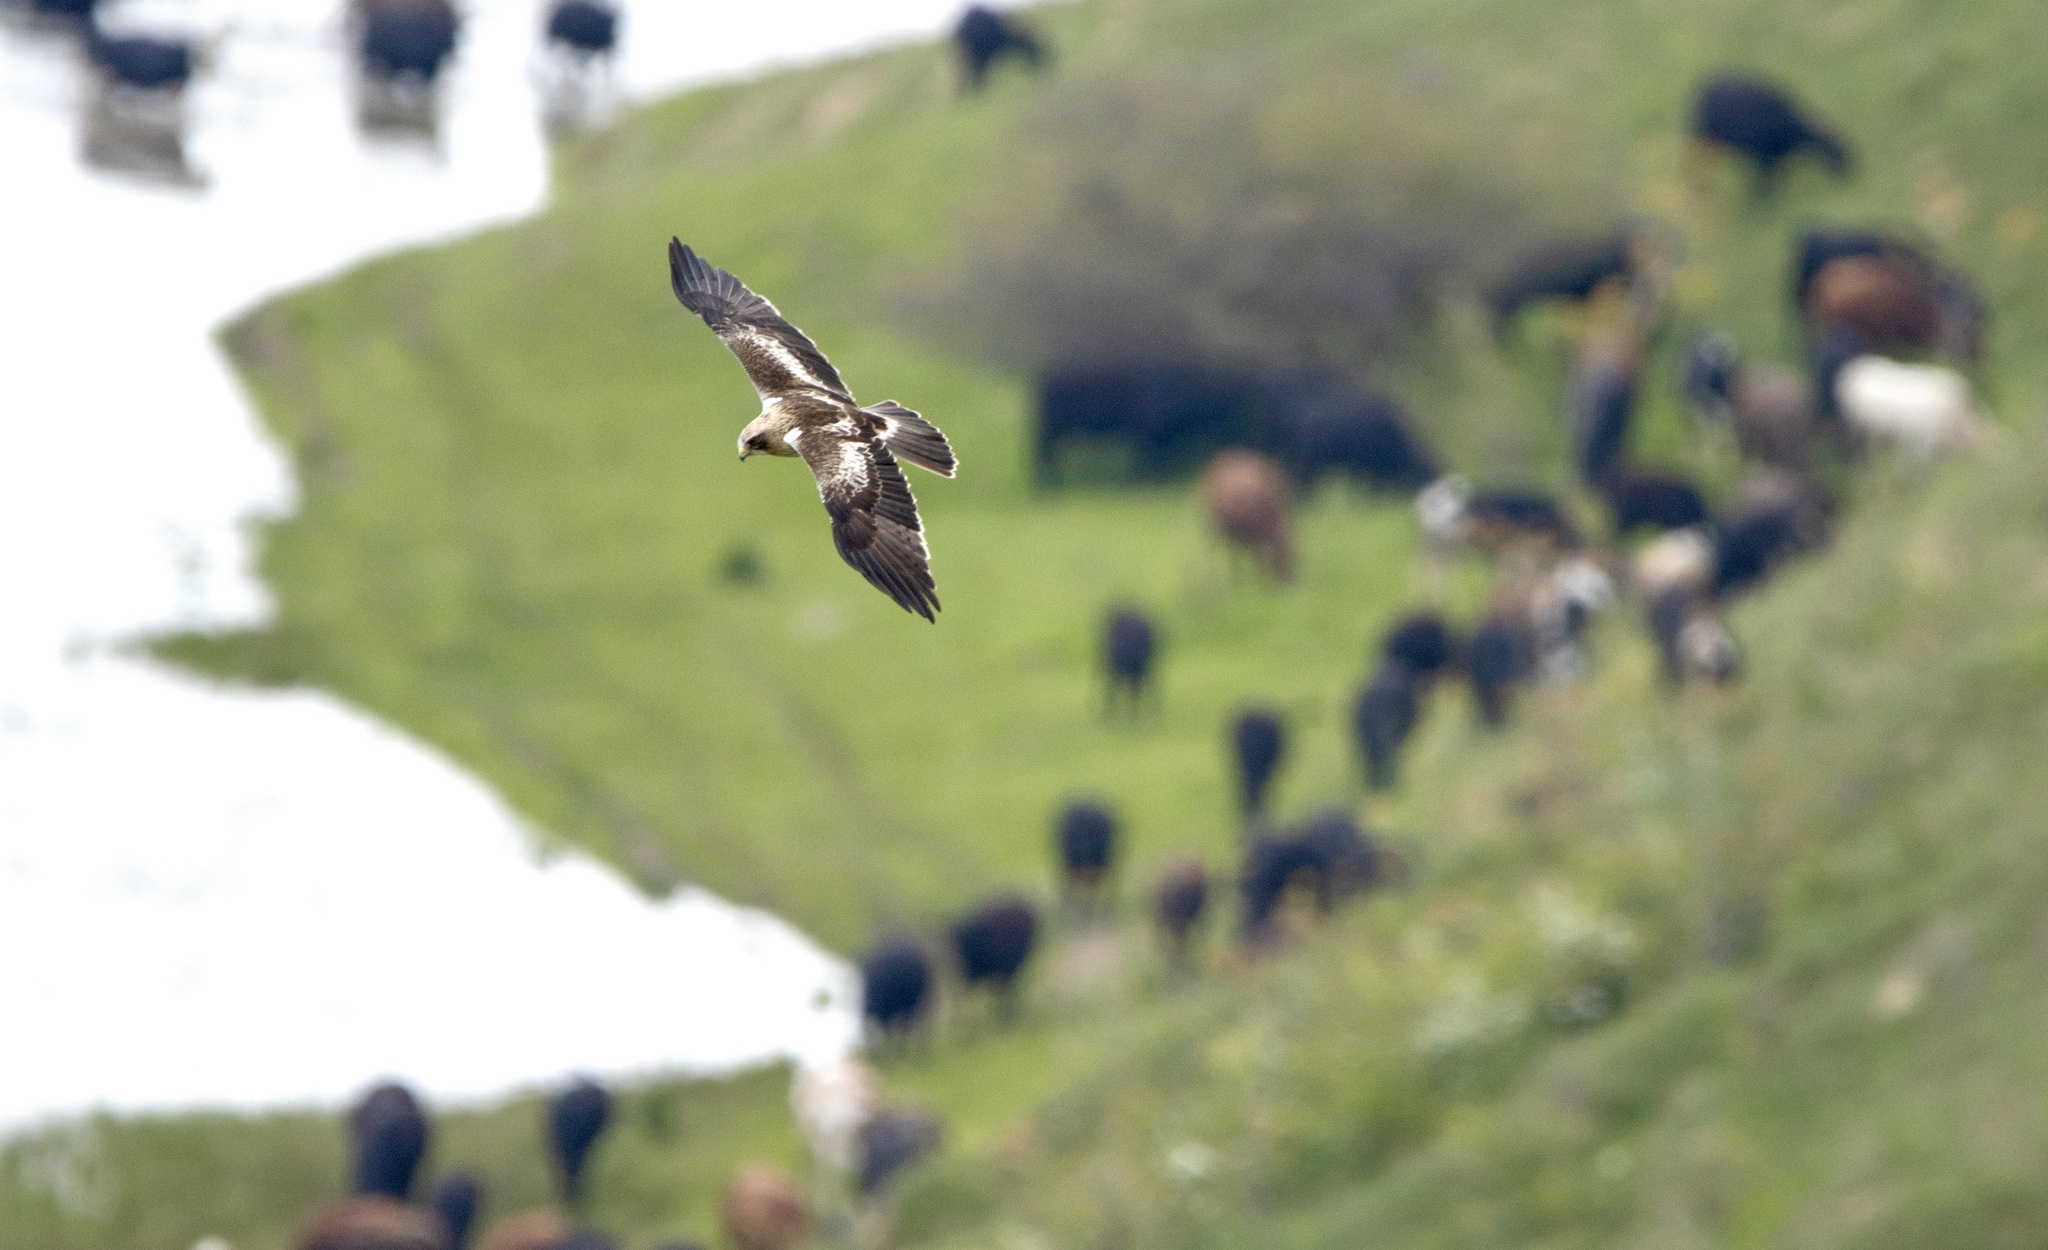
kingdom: Animalia
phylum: Chordata
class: Aves
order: Accipitriformes
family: Accipitridae
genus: Hieraaetus
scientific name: Hieraaetus pennatus
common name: Booted eagle
